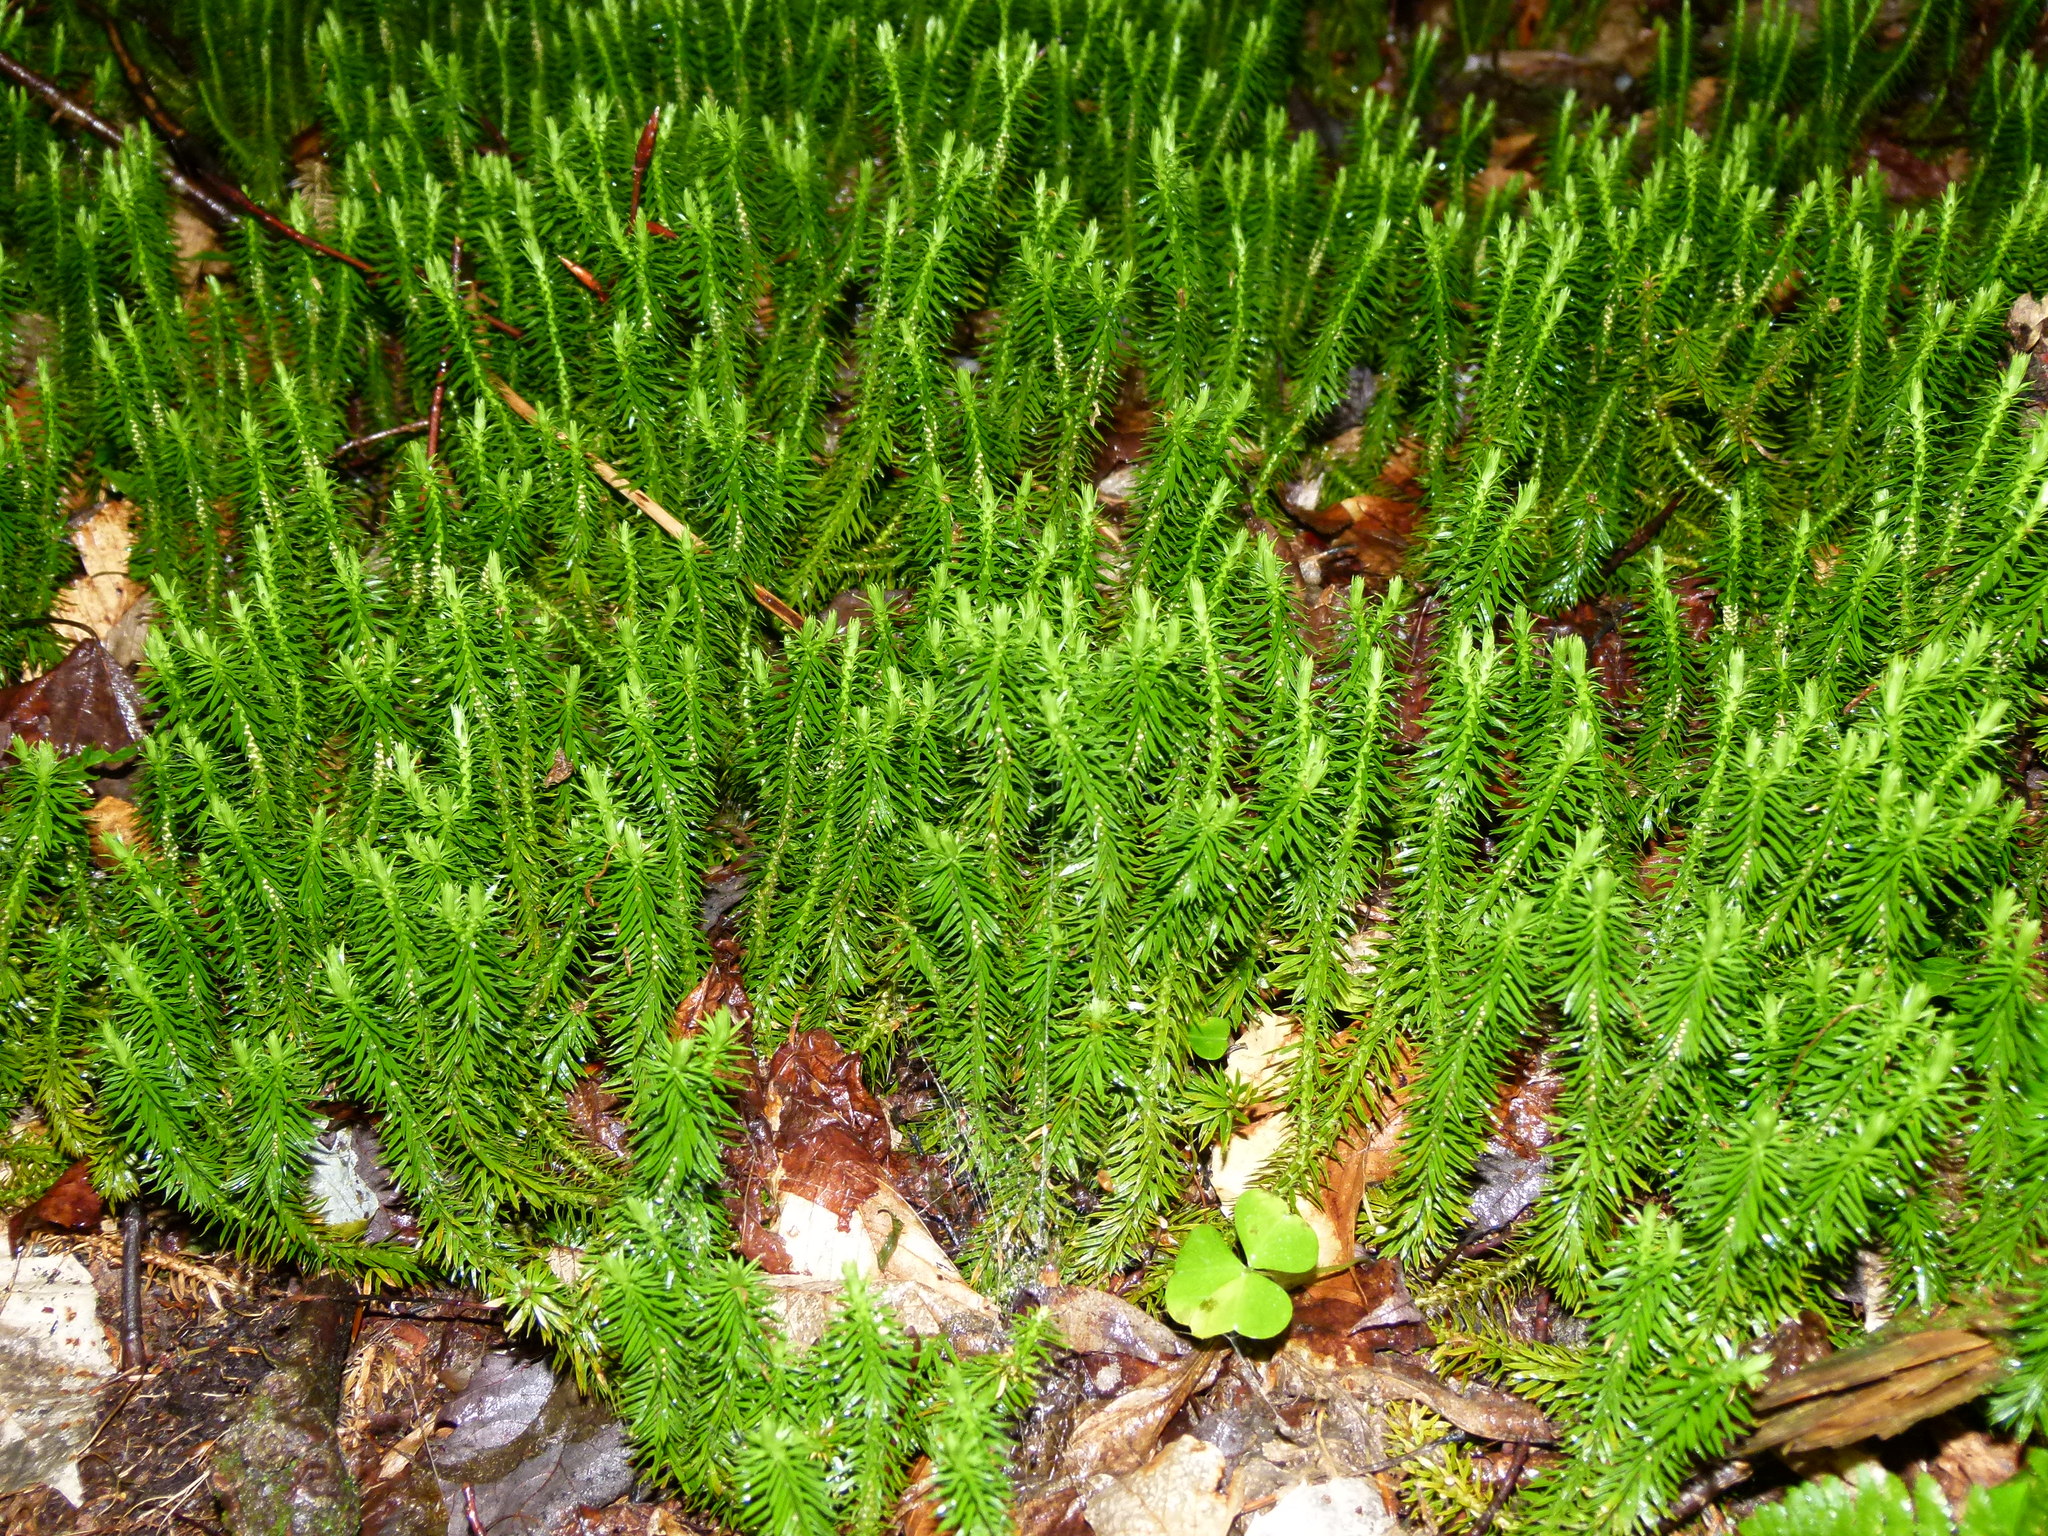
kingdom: Plantae
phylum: Tracheophyta
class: Lycopodiopsida
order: Lycopodiales
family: Lycopodiaceae
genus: Huperzia
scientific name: Huperzia lucidula
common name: Shining clubmoss
